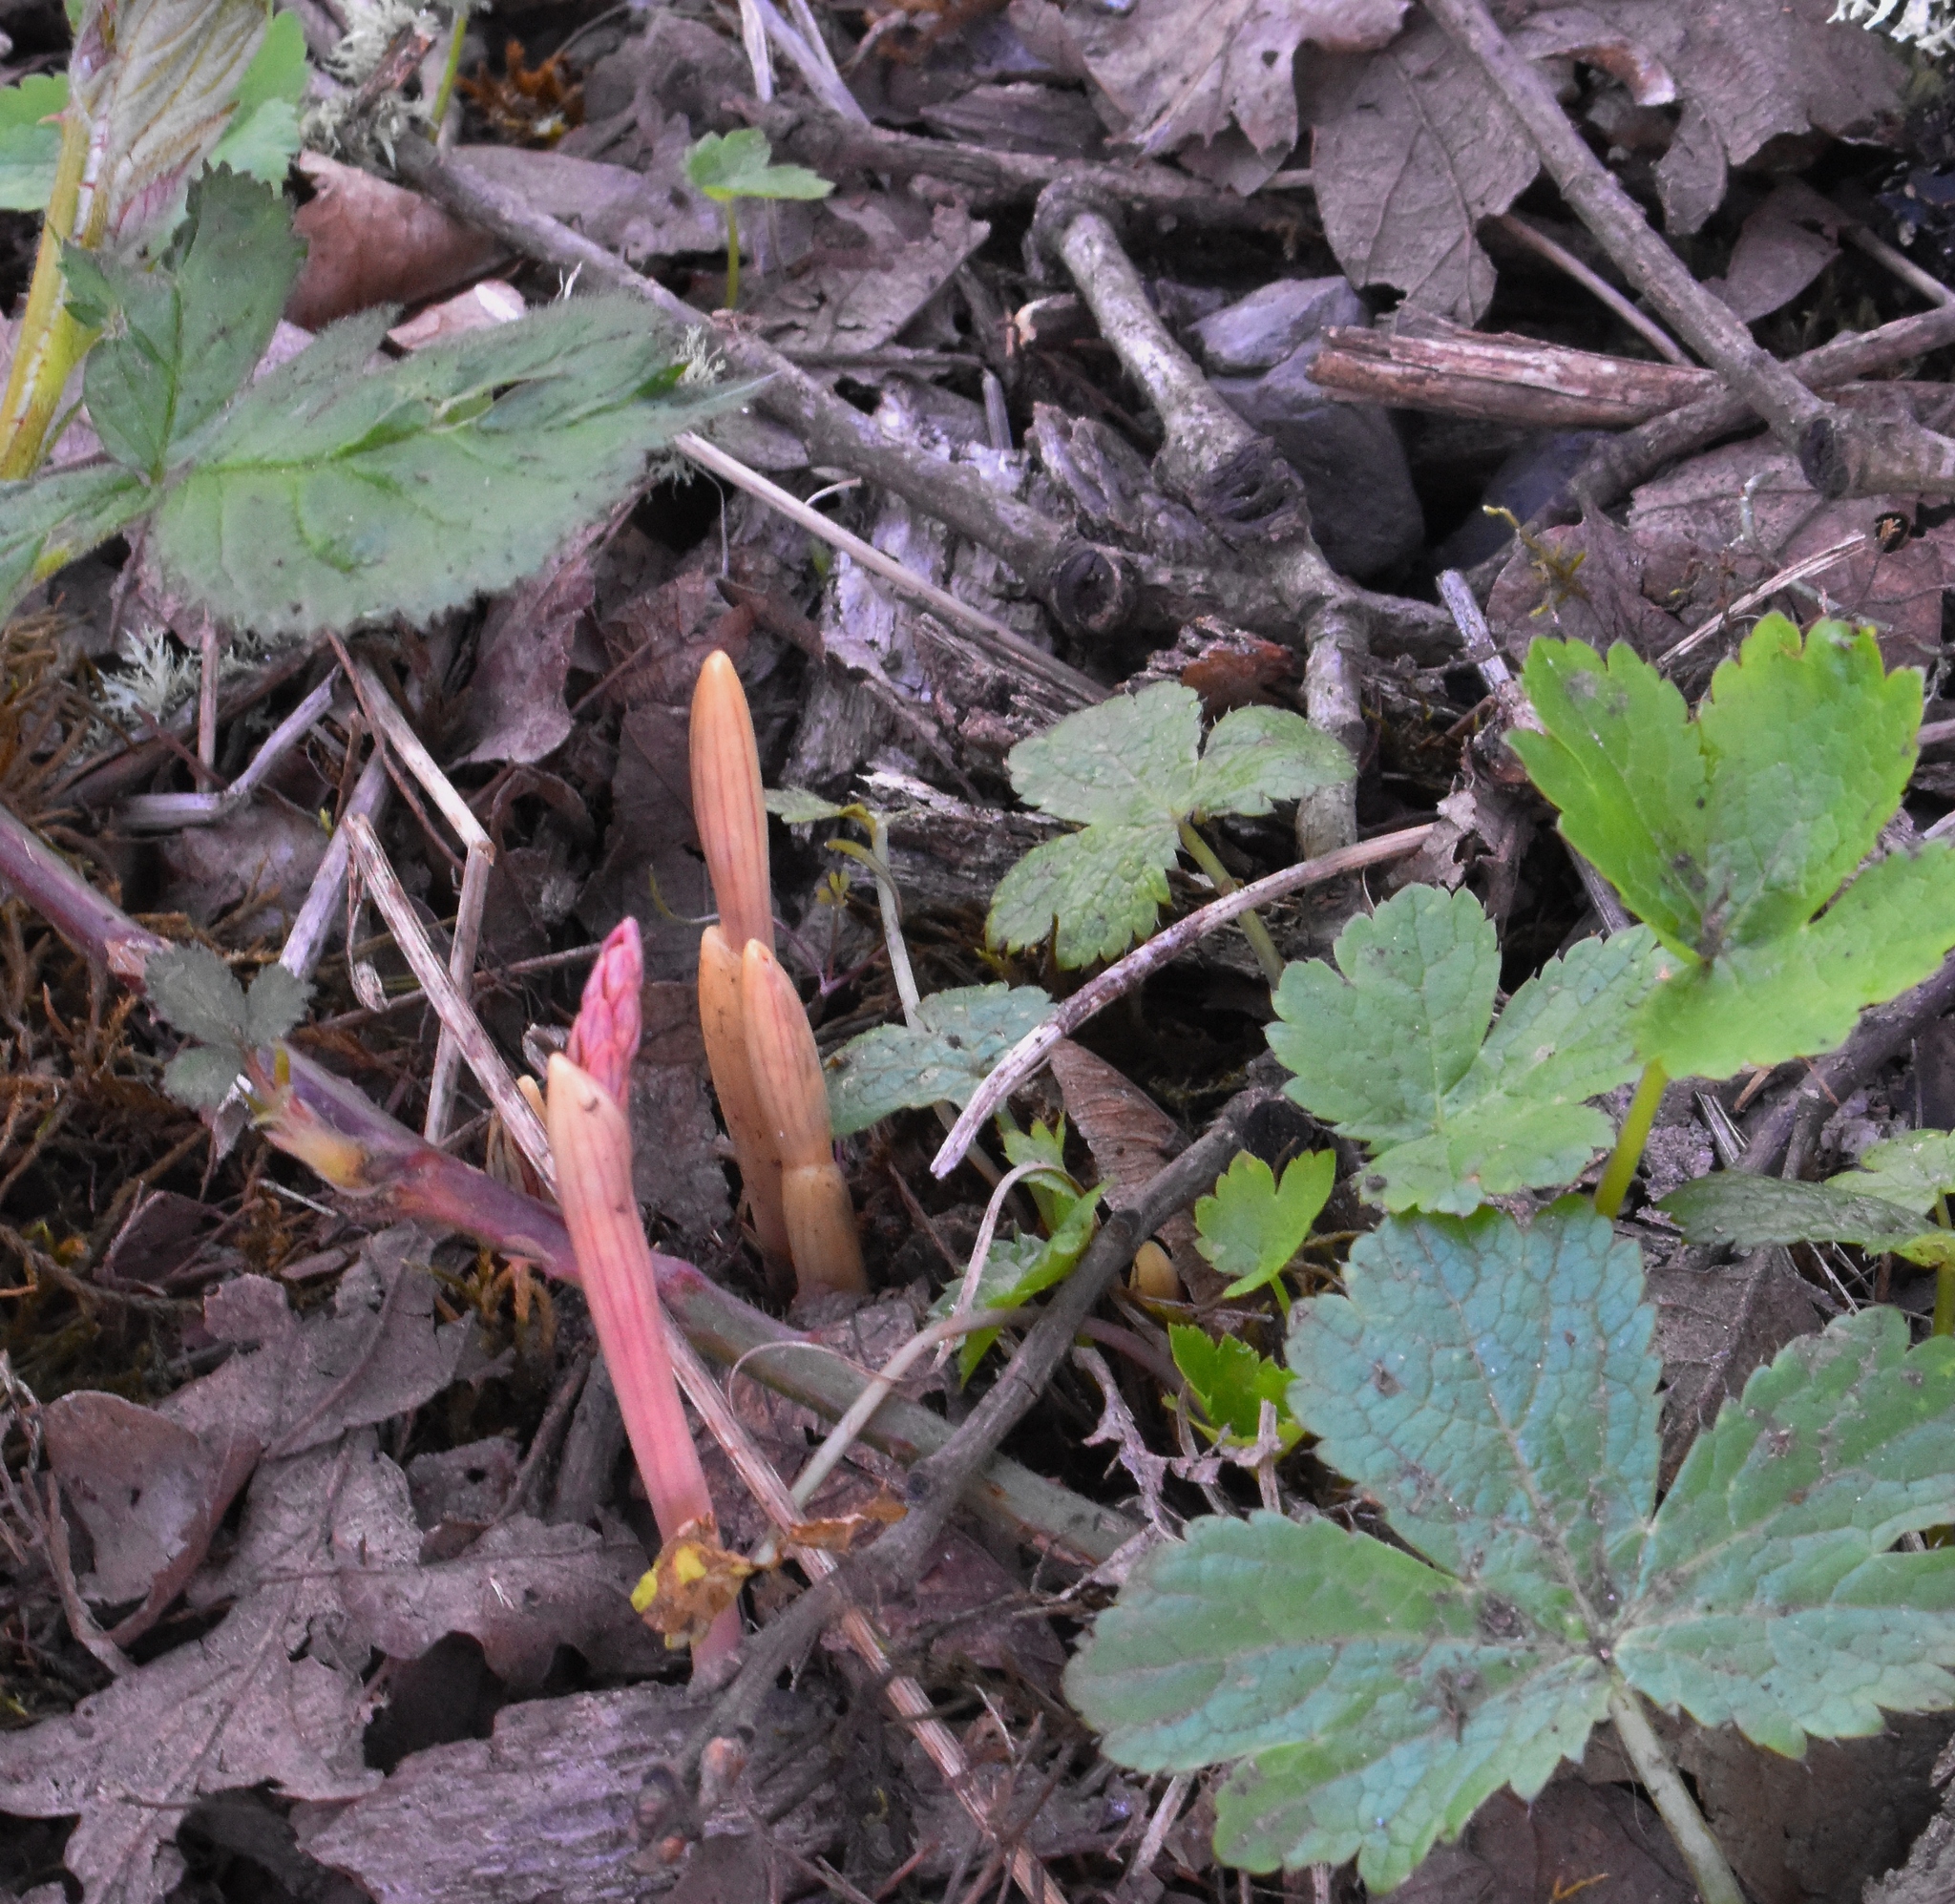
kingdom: Plantae
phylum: Tracheophyta
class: Liliopsida
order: Asparagales
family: Orchidaceae
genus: Corallorhiza
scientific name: Corallorhiza striata
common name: Hooded coralroot
